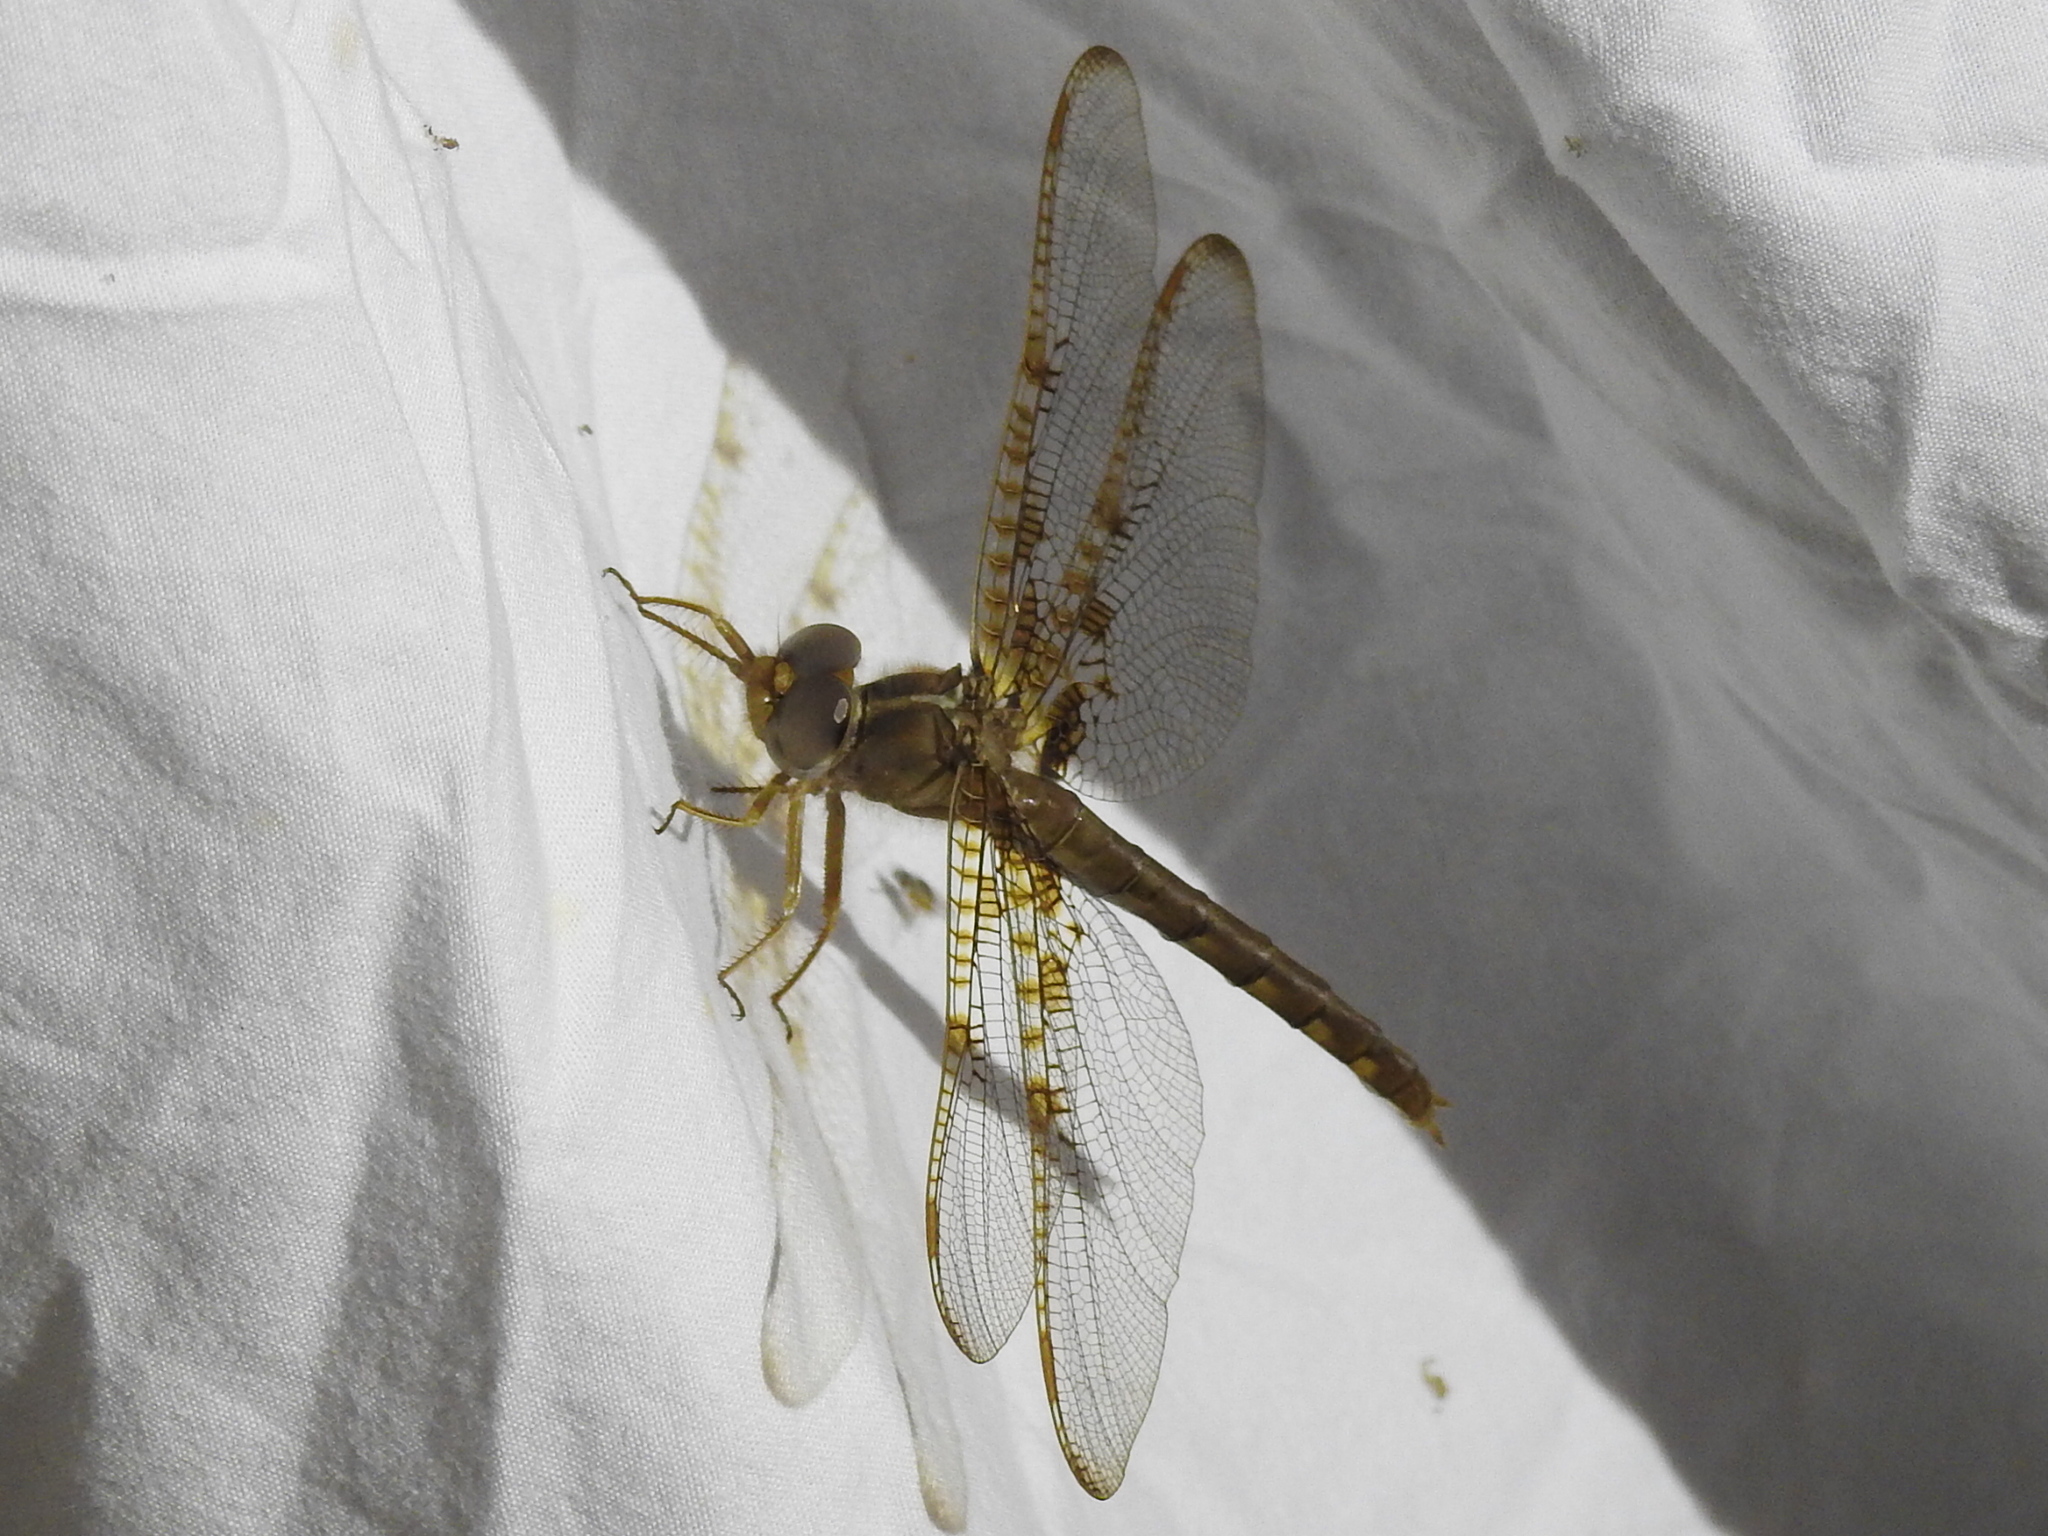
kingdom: Animalia
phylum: Arthropoda
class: Insecta
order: Odonata
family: Corduliidae
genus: Neurocordulia
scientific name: Neurocordulia xanthosoma
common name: Orange shadowdragon
